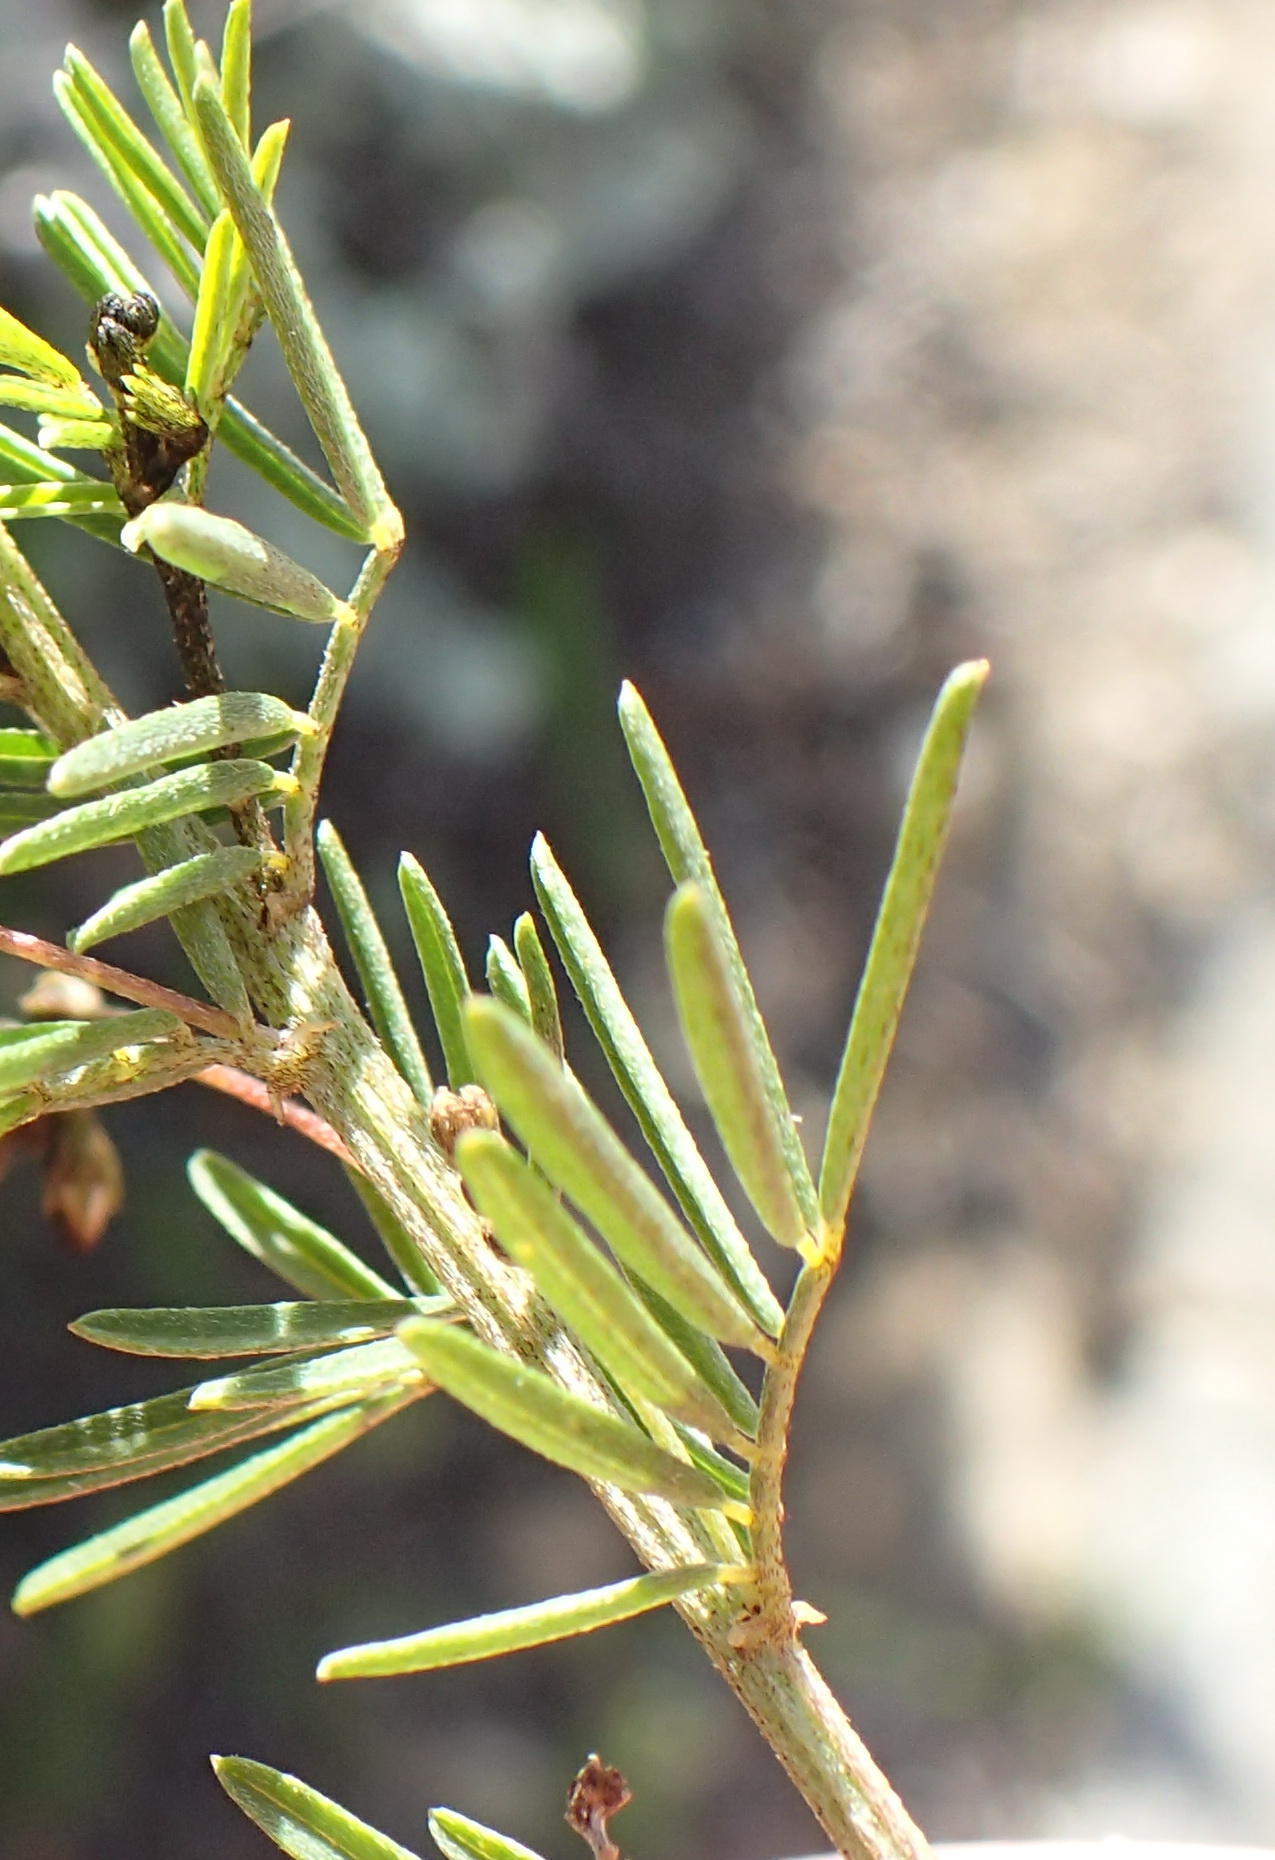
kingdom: Plantae
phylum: Tracheophyta
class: Magnoliopsida
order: Fabales
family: Fabaceae
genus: Indigofera
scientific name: Indigofera verrucosa
